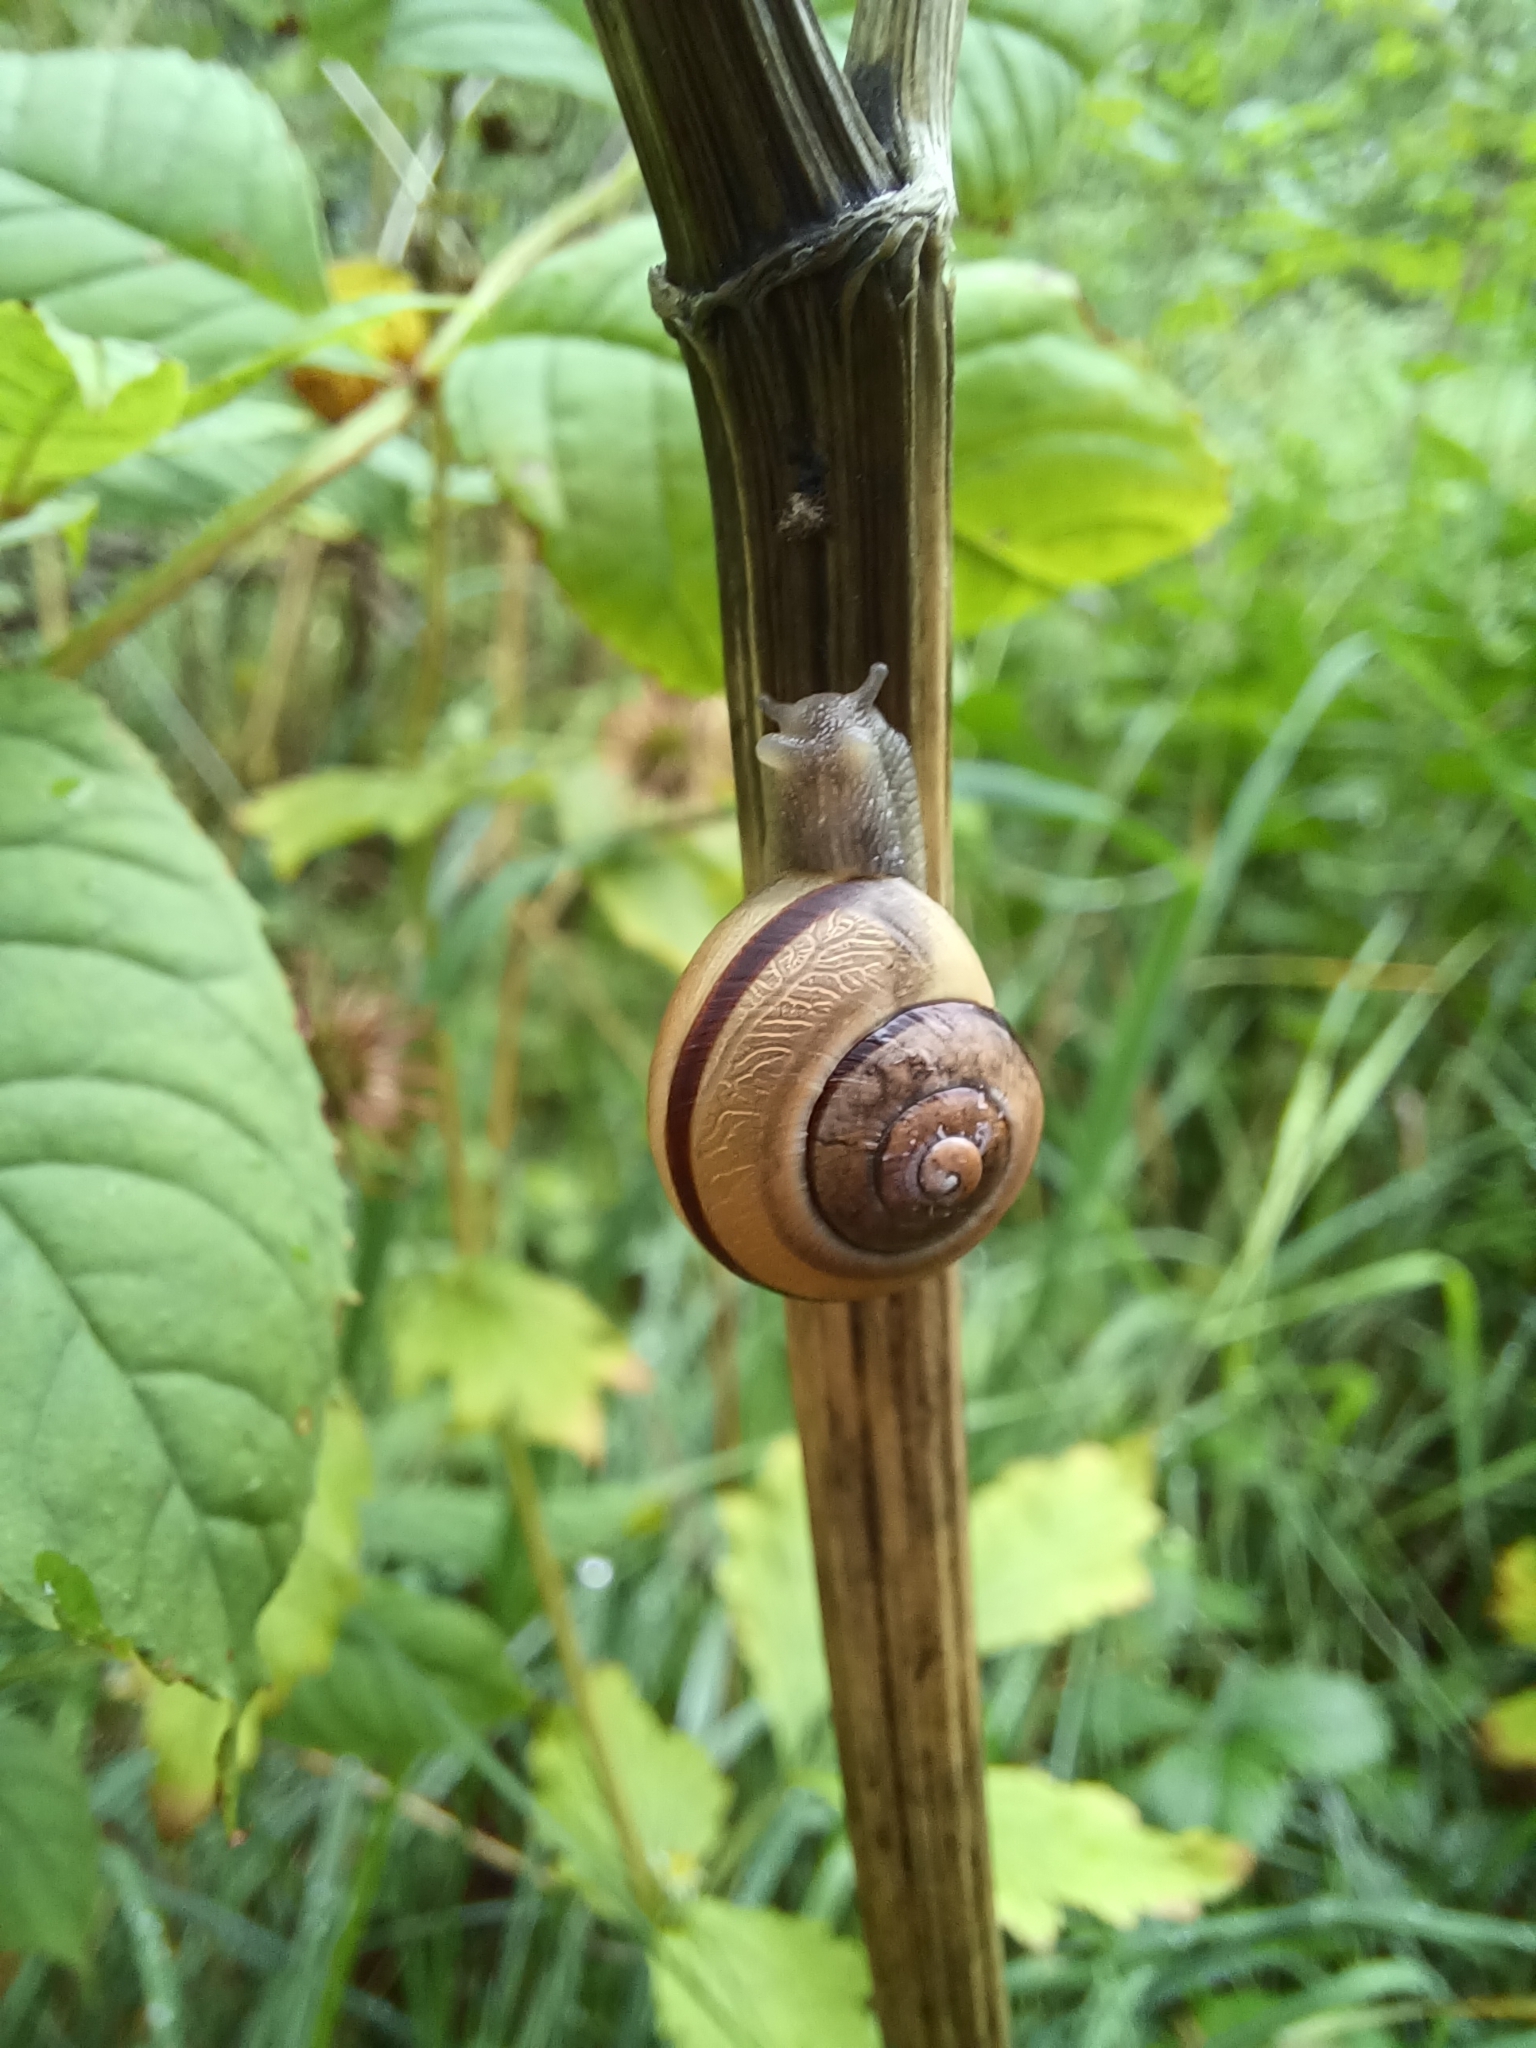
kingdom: Animalia
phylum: Mollusca
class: Gastropoda
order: Stylommatophora
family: Helicidae
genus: Cepaea
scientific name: Cepaea nemoralis
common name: Grovesnail
